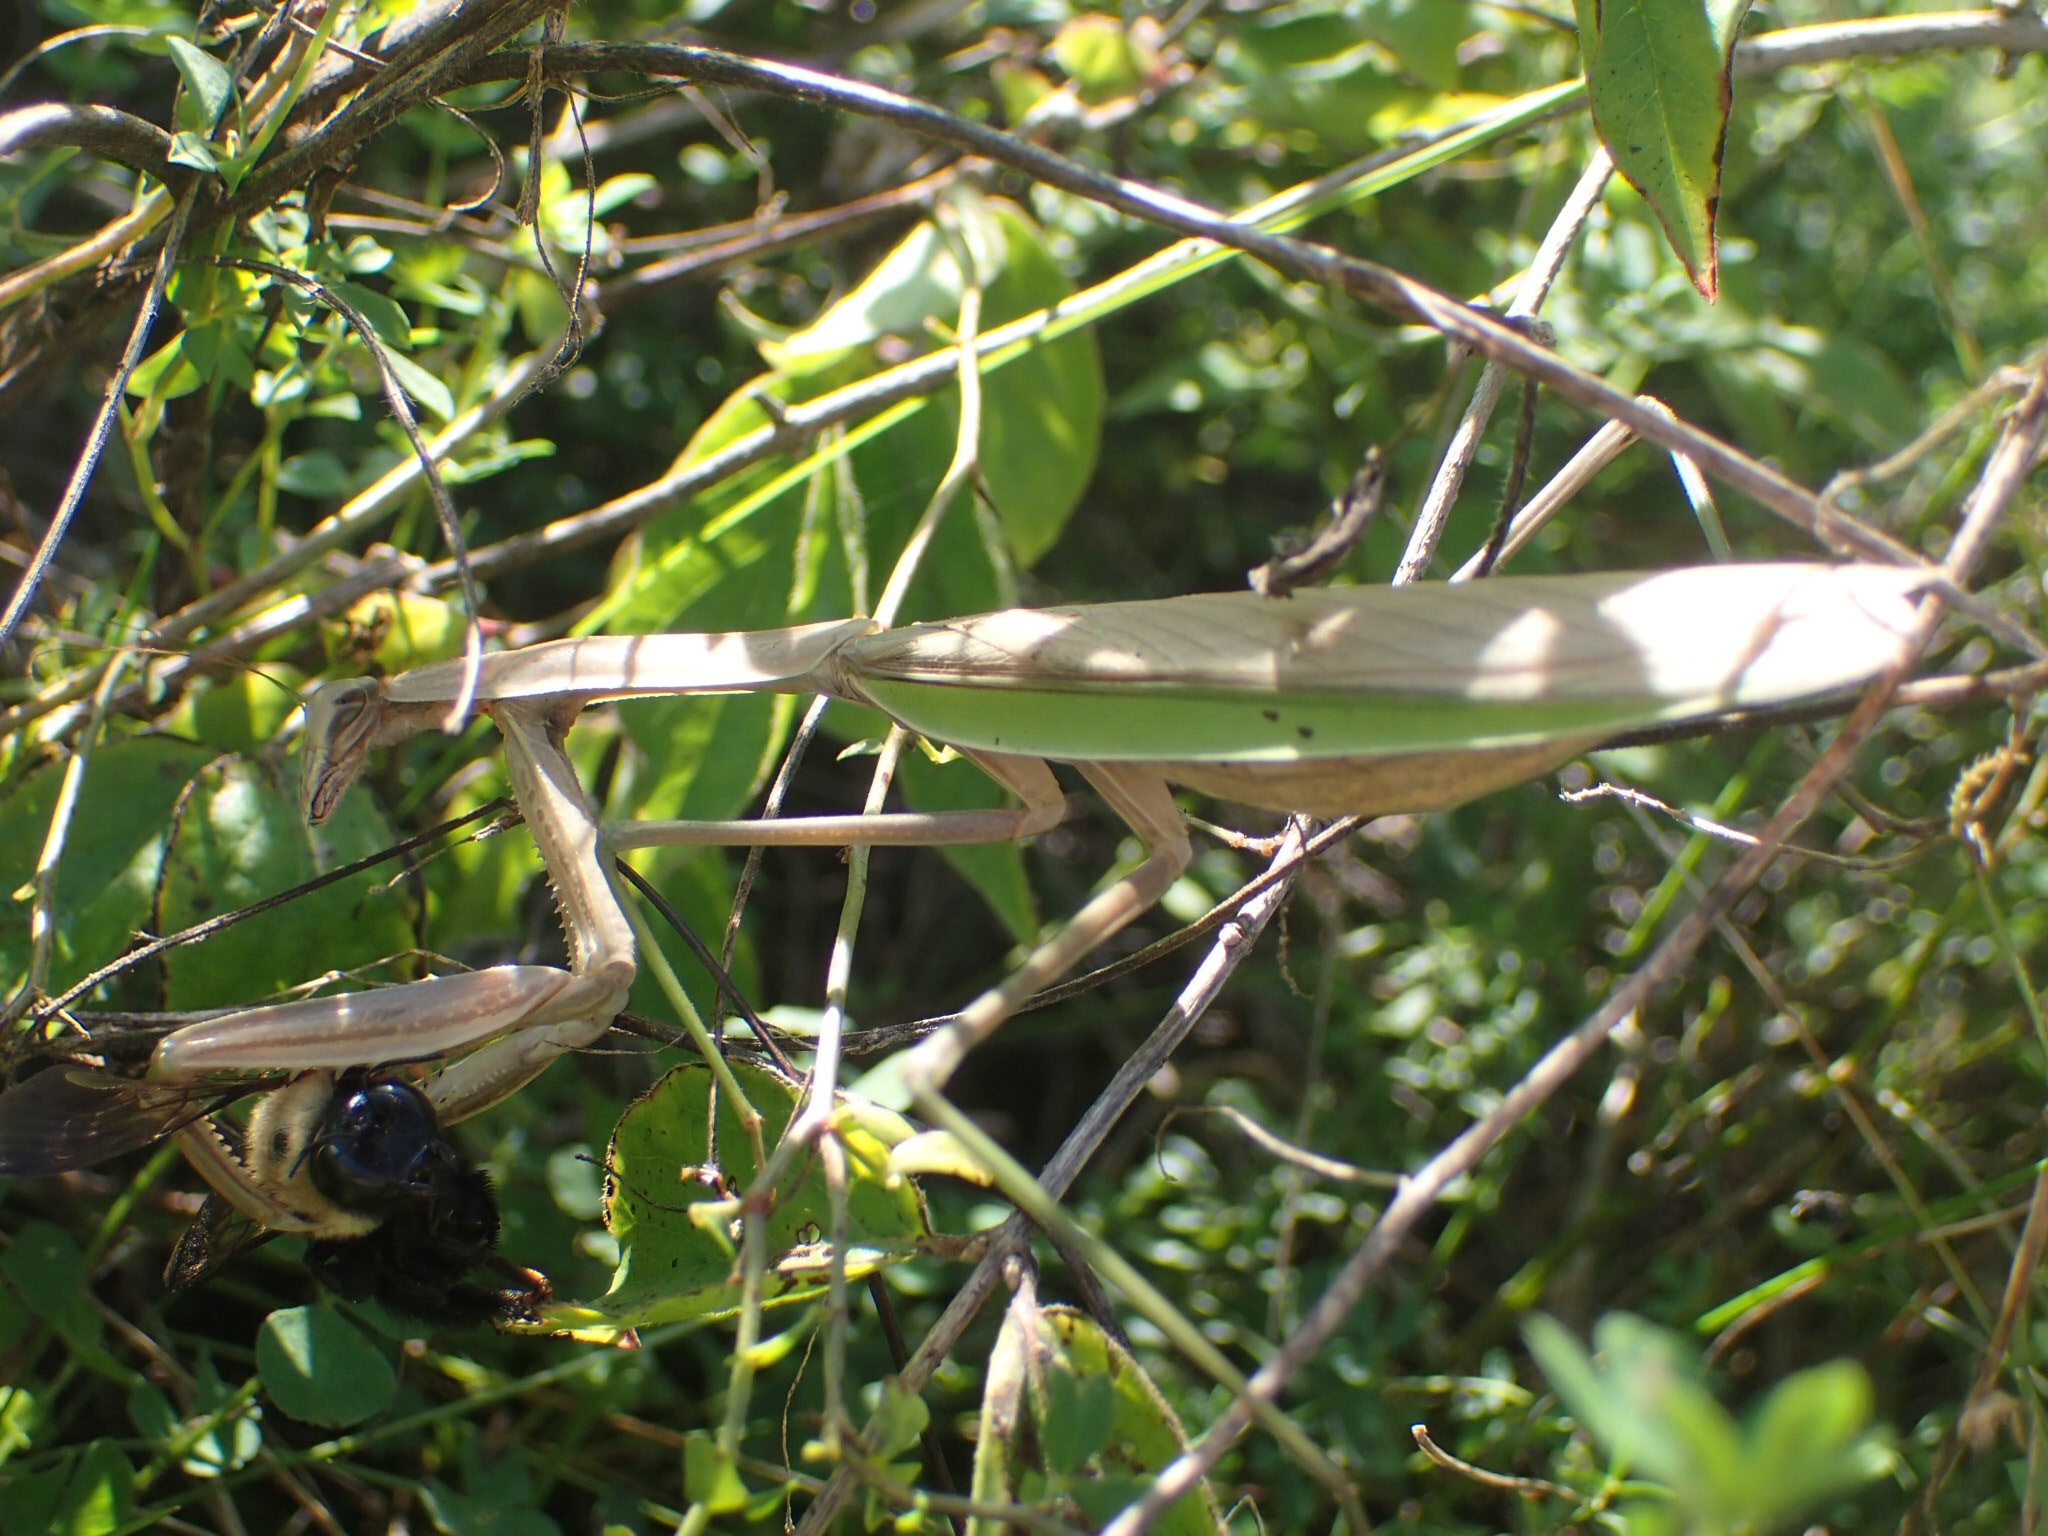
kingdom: Animalia
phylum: Arthropoda
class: Insecta
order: Mantodea
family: Mantidae
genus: Tenodera
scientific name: Tenodera sinensis
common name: Chinese mantis
